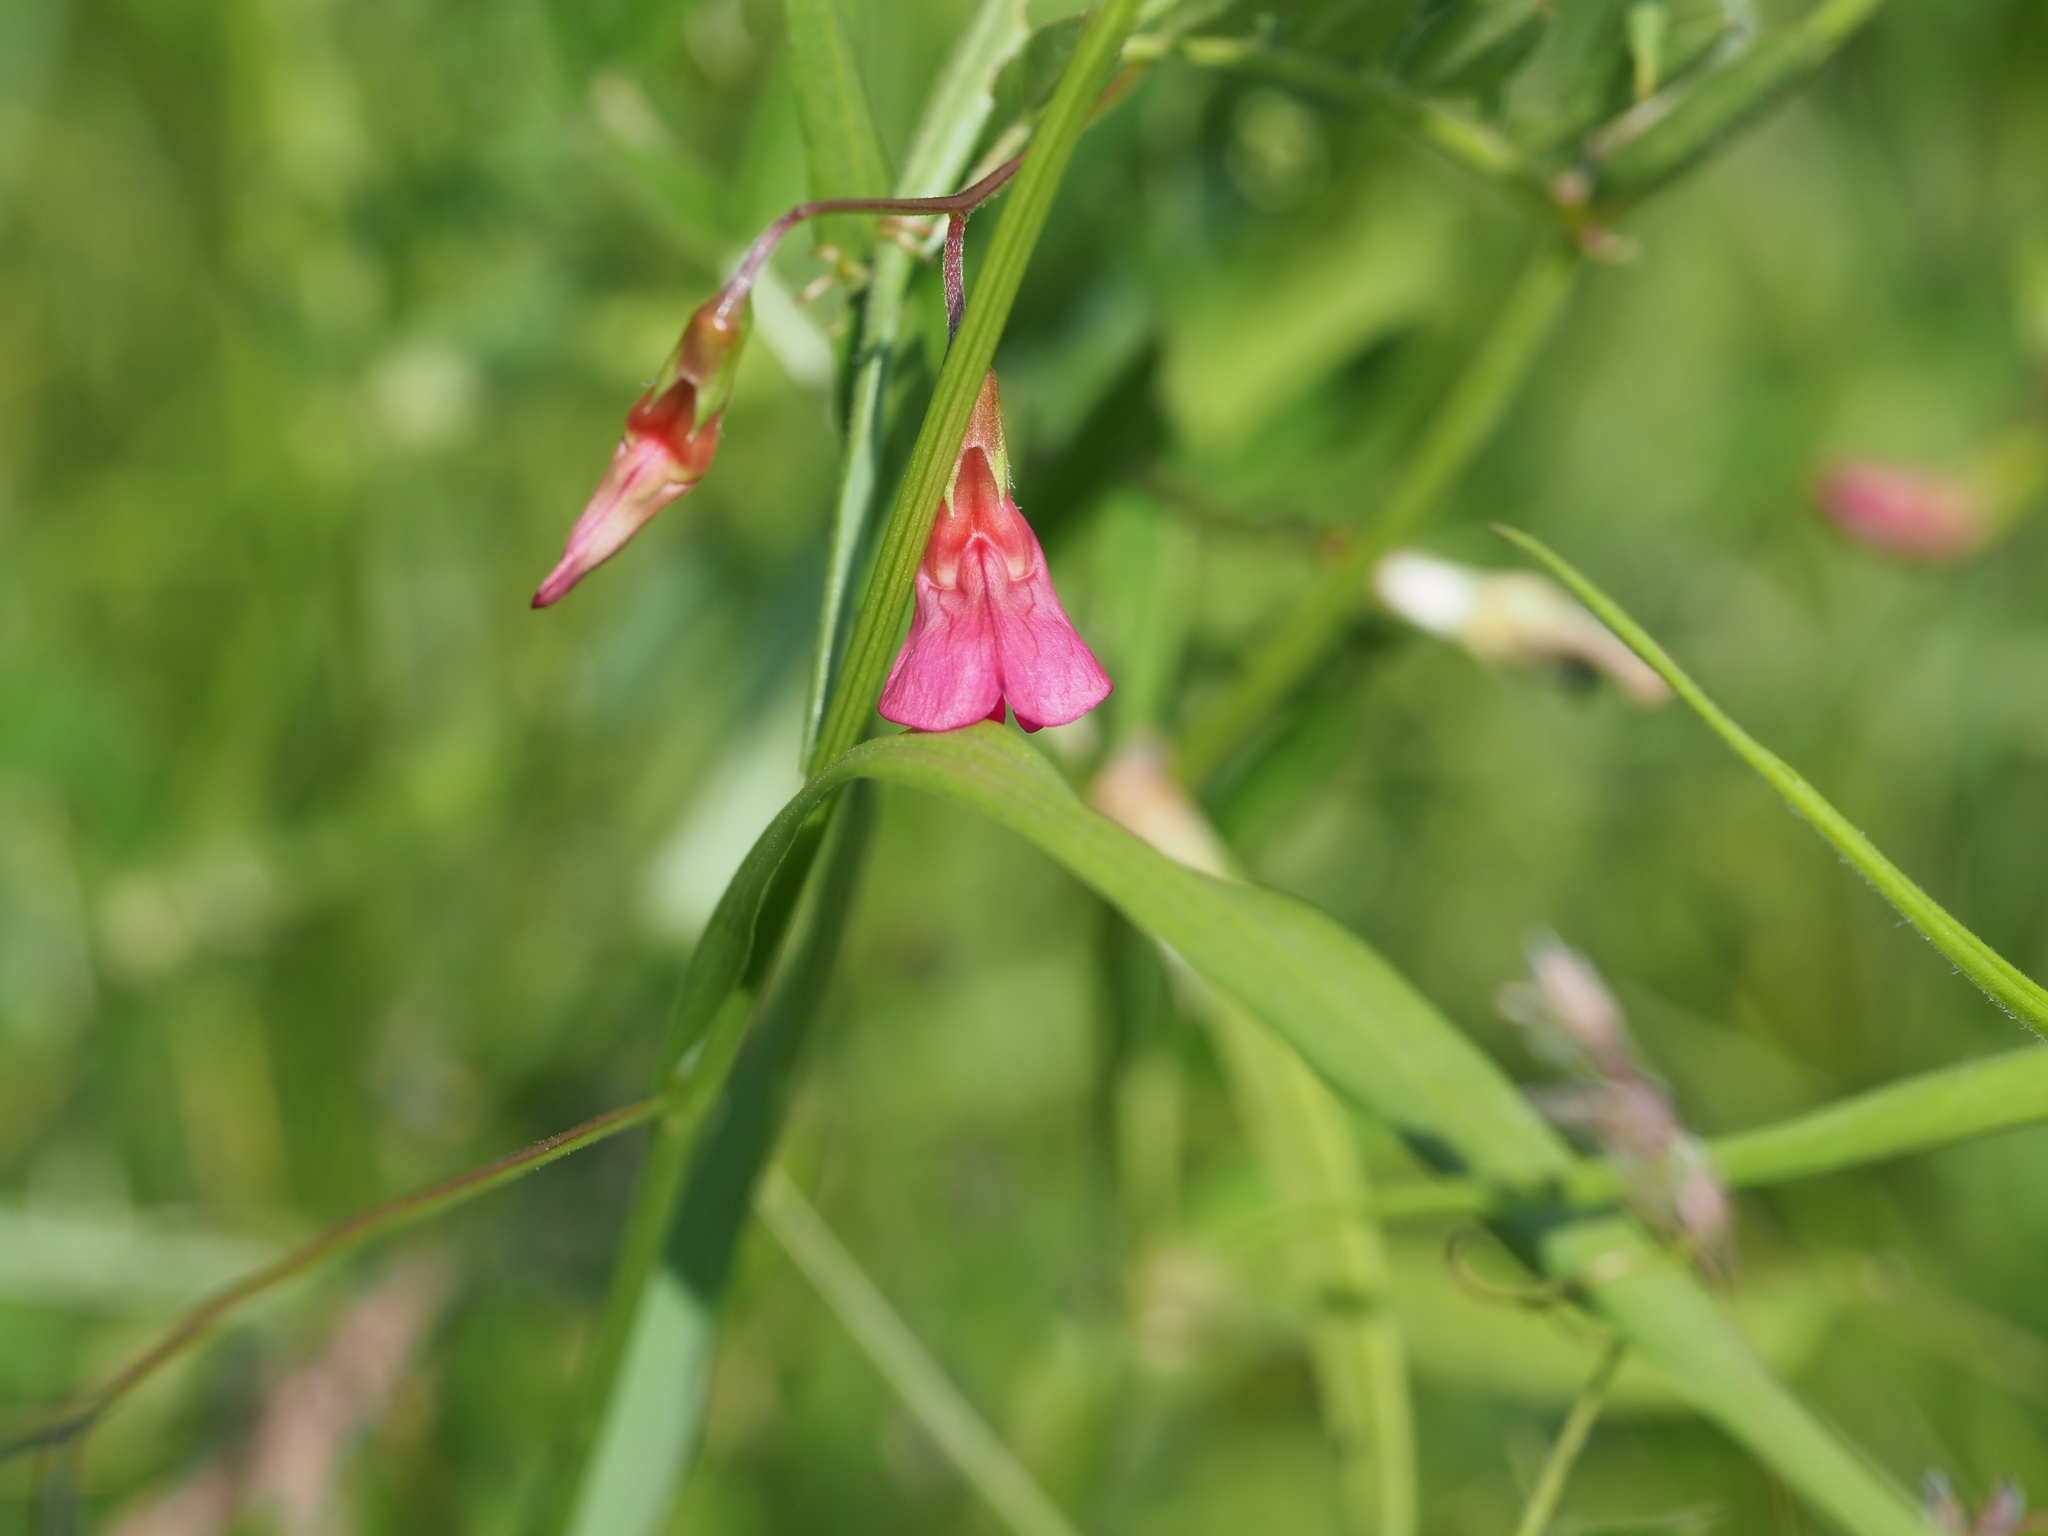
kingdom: Plantae
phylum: Tracheophyta
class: Magnoliopsida
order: Fabales
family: Fabaceae
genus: Lathyrus
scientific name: Lathyrus nissolia
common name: Grass vetchling
